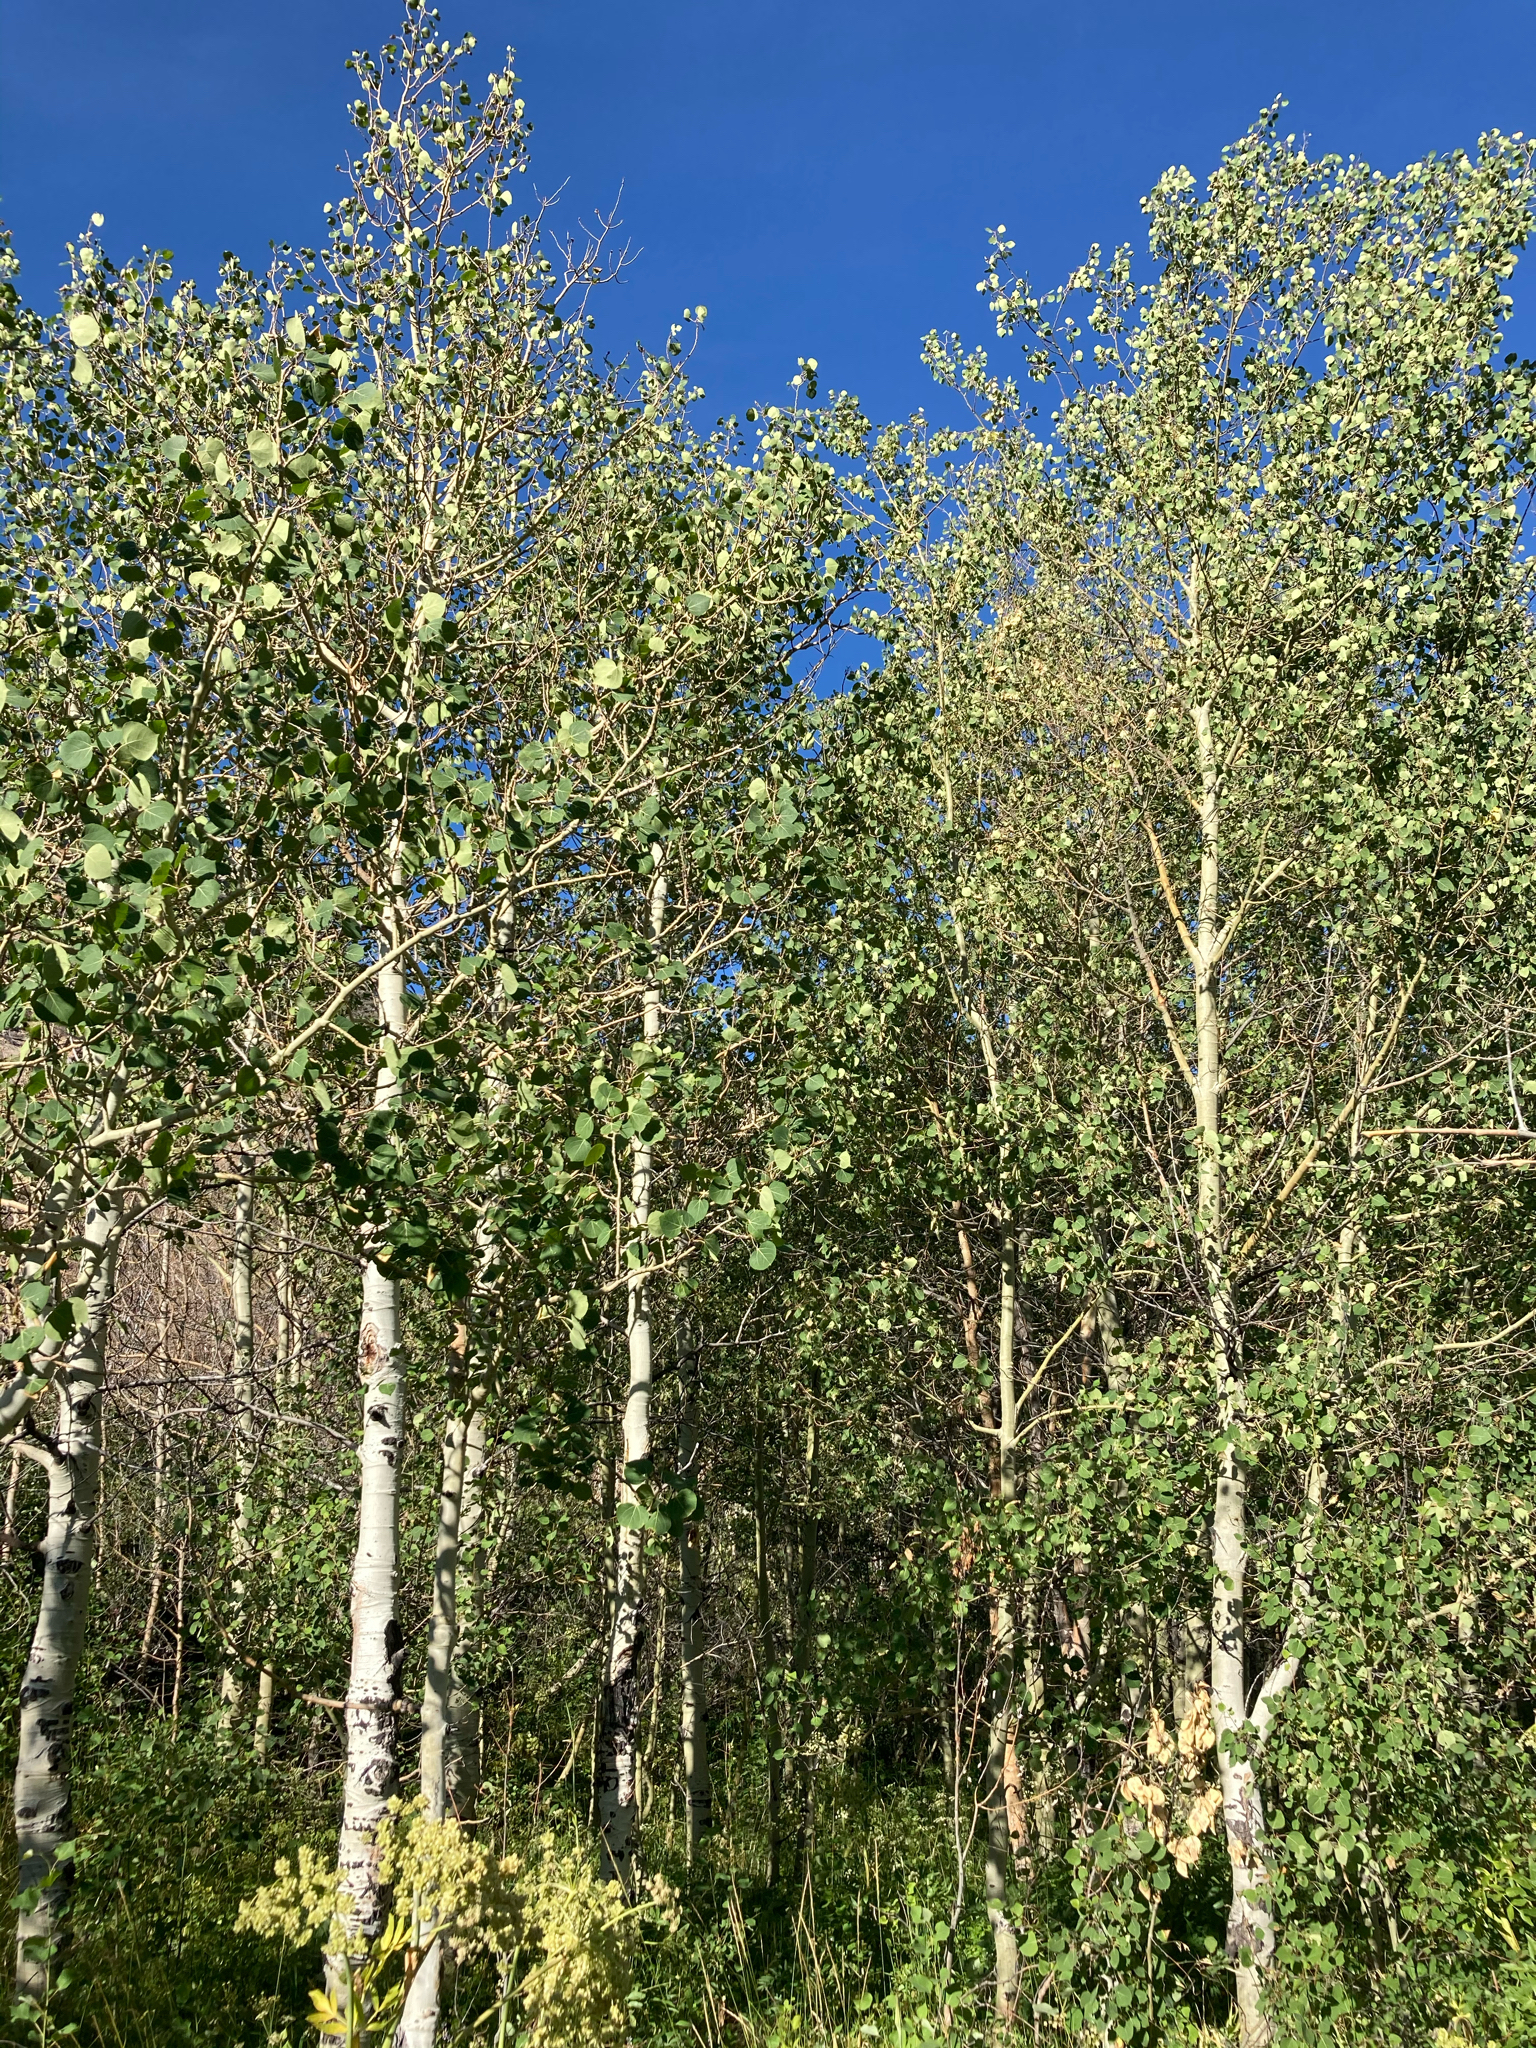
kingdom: Plantae
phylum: Tracheophyta
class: Magnoliopsida
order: Malpighiales
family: Salicaceae
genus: Populus
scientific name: Populus tremuloides
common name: Quaking aspen
